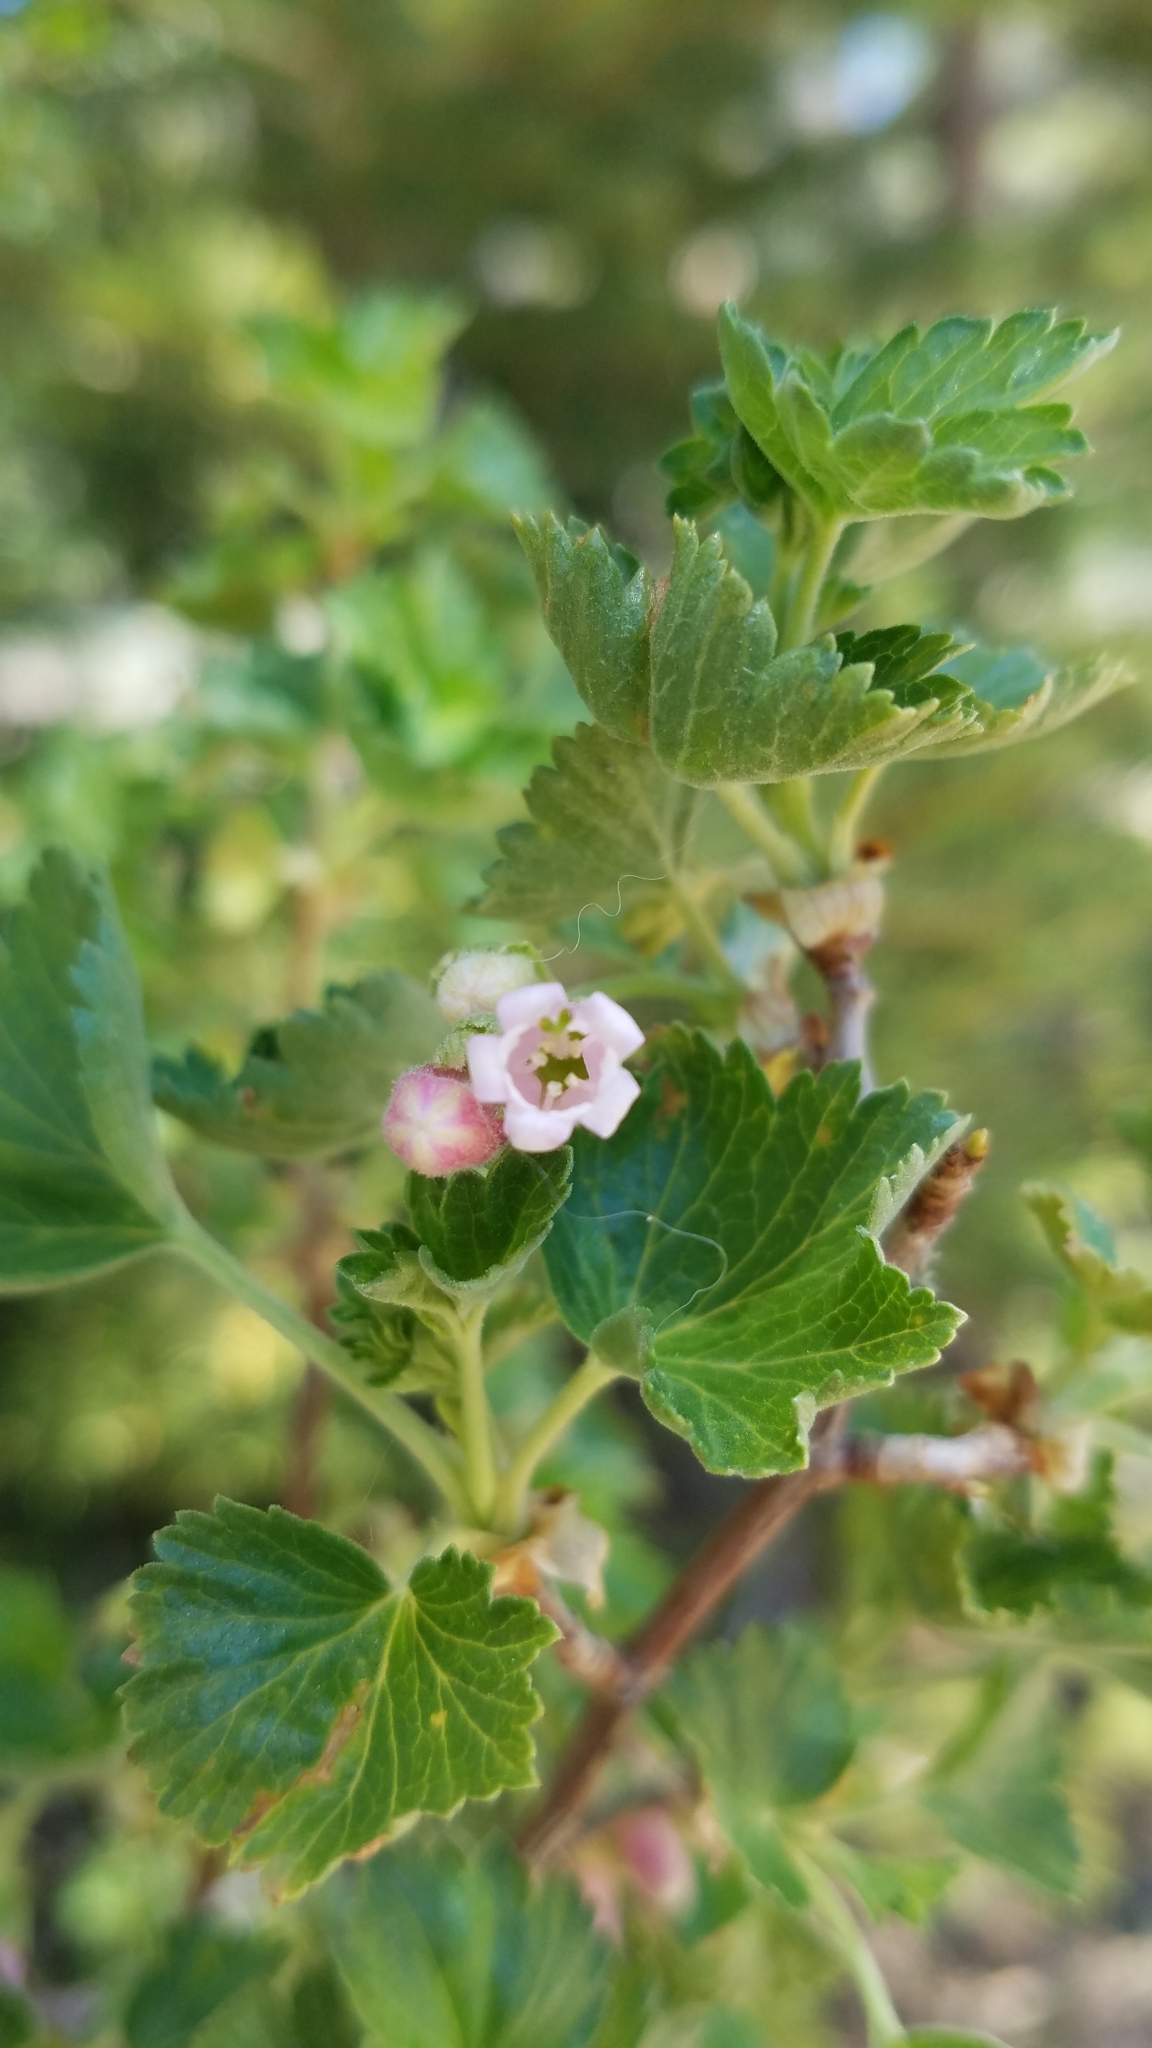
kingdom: Plantae
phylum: Tracheophyta
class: Magnoliopsida
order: Saxifragales
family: Grossulariaceae
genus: Ribes
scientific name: Ribes cereum
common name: Wax currant
